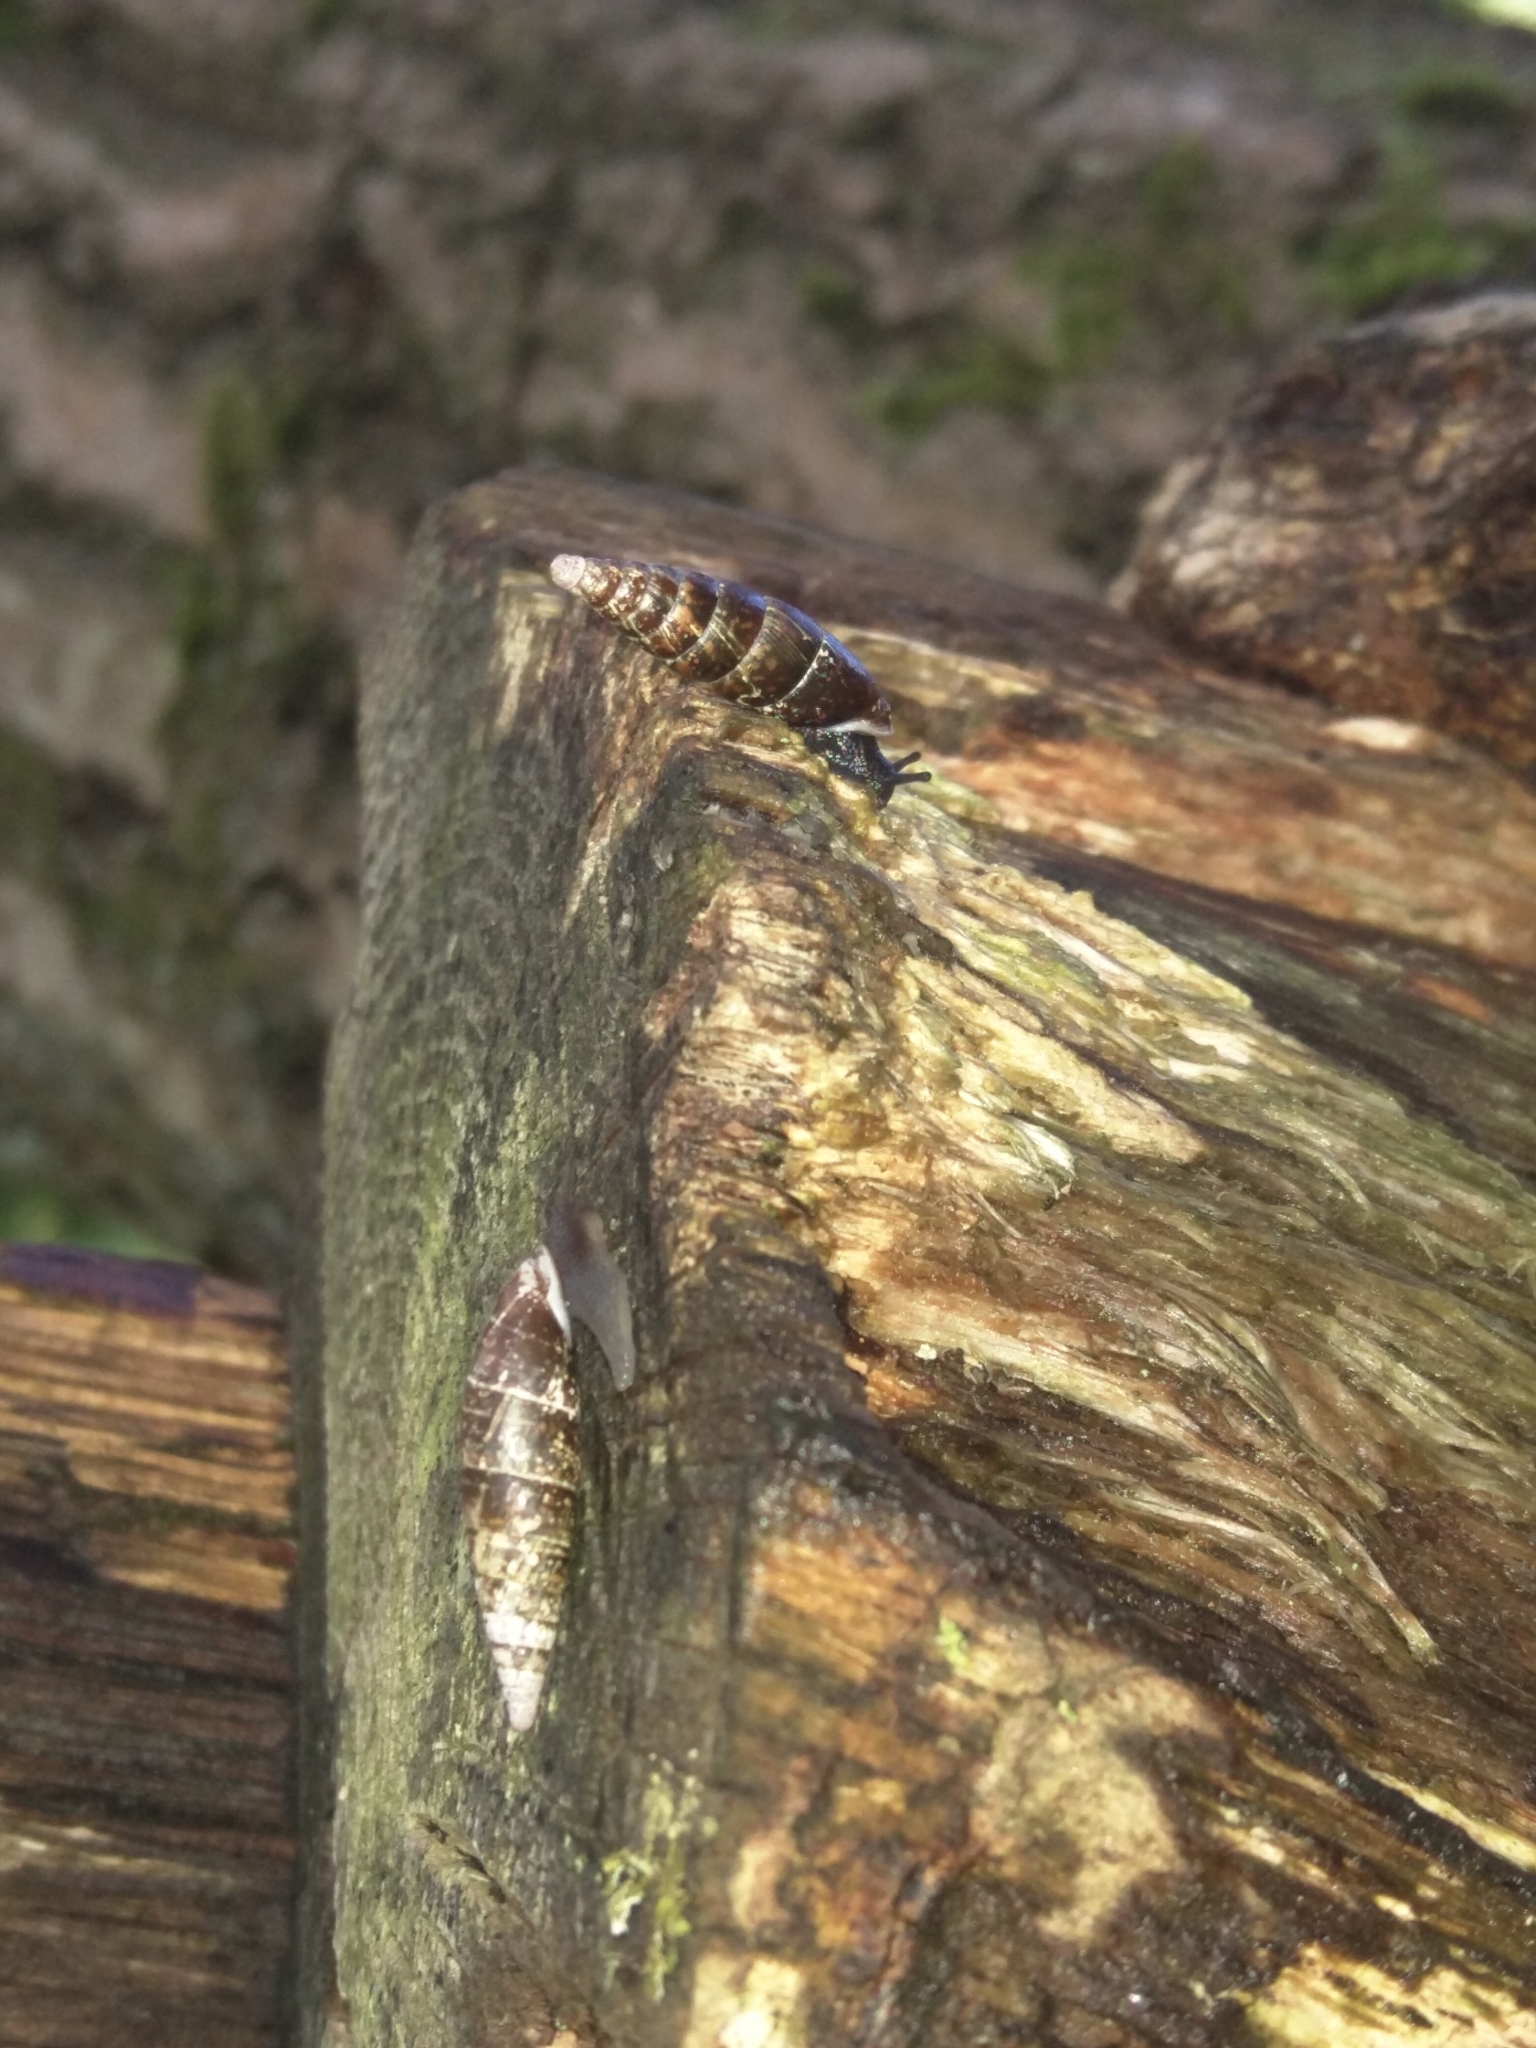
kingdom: Animalia
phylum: Mollusca
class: Gastropoda
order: Stylommatophora
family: Clausiliidae
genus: Cochlodina
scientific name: Cochlodina laminata
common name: Plaited door snail
